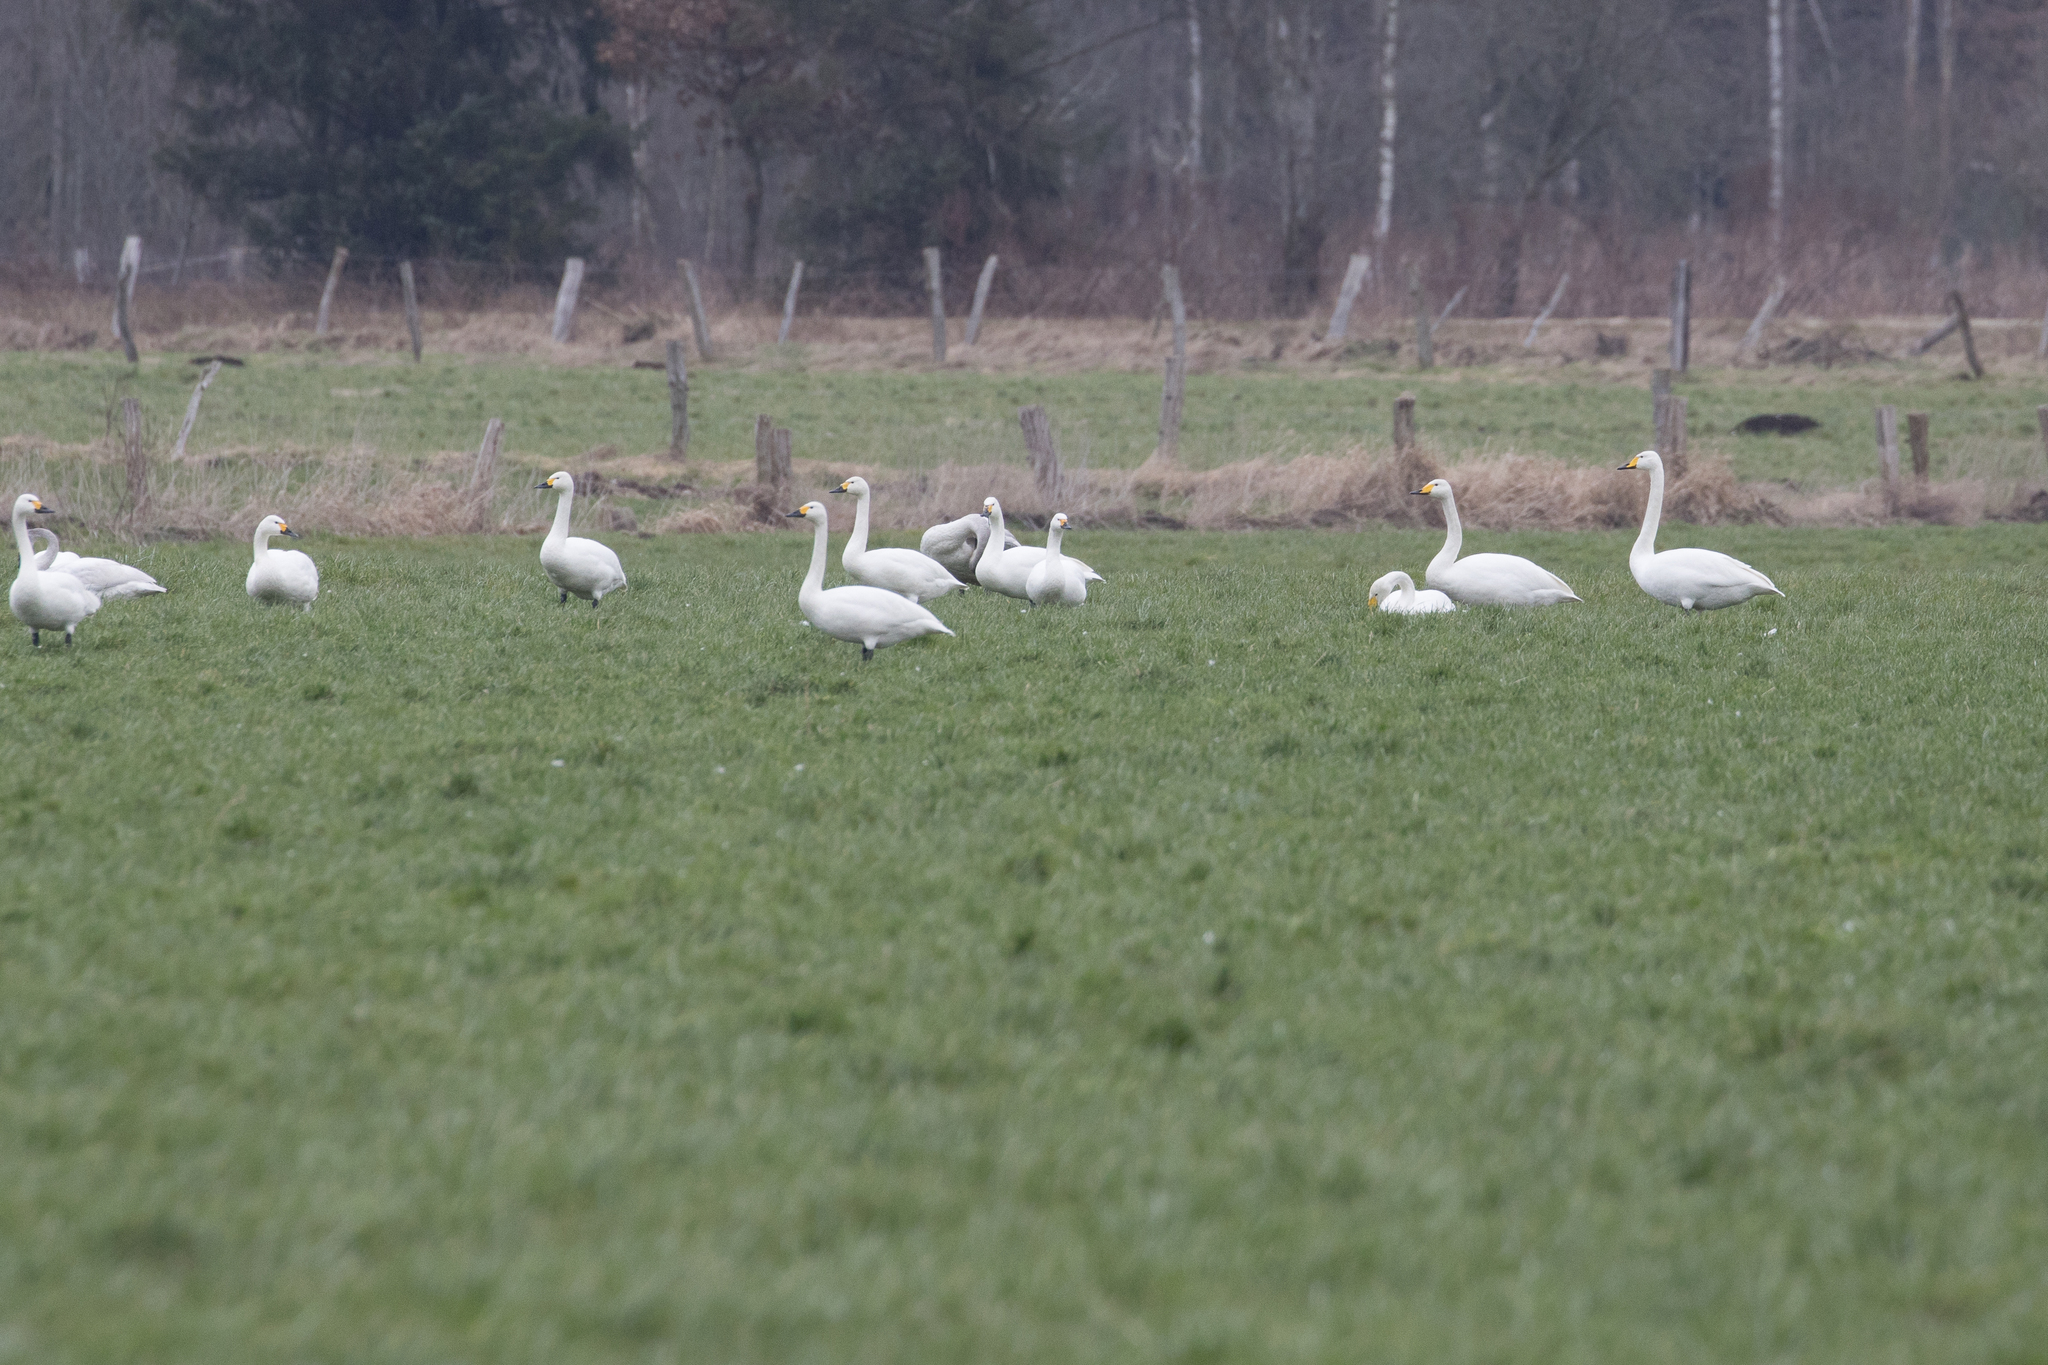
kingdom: Animalia
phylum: Chordata
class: Aves
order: Anseriformes
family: Anatidae
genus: Cygnus
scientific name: Cygnus columbianus
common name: Tundra swan
